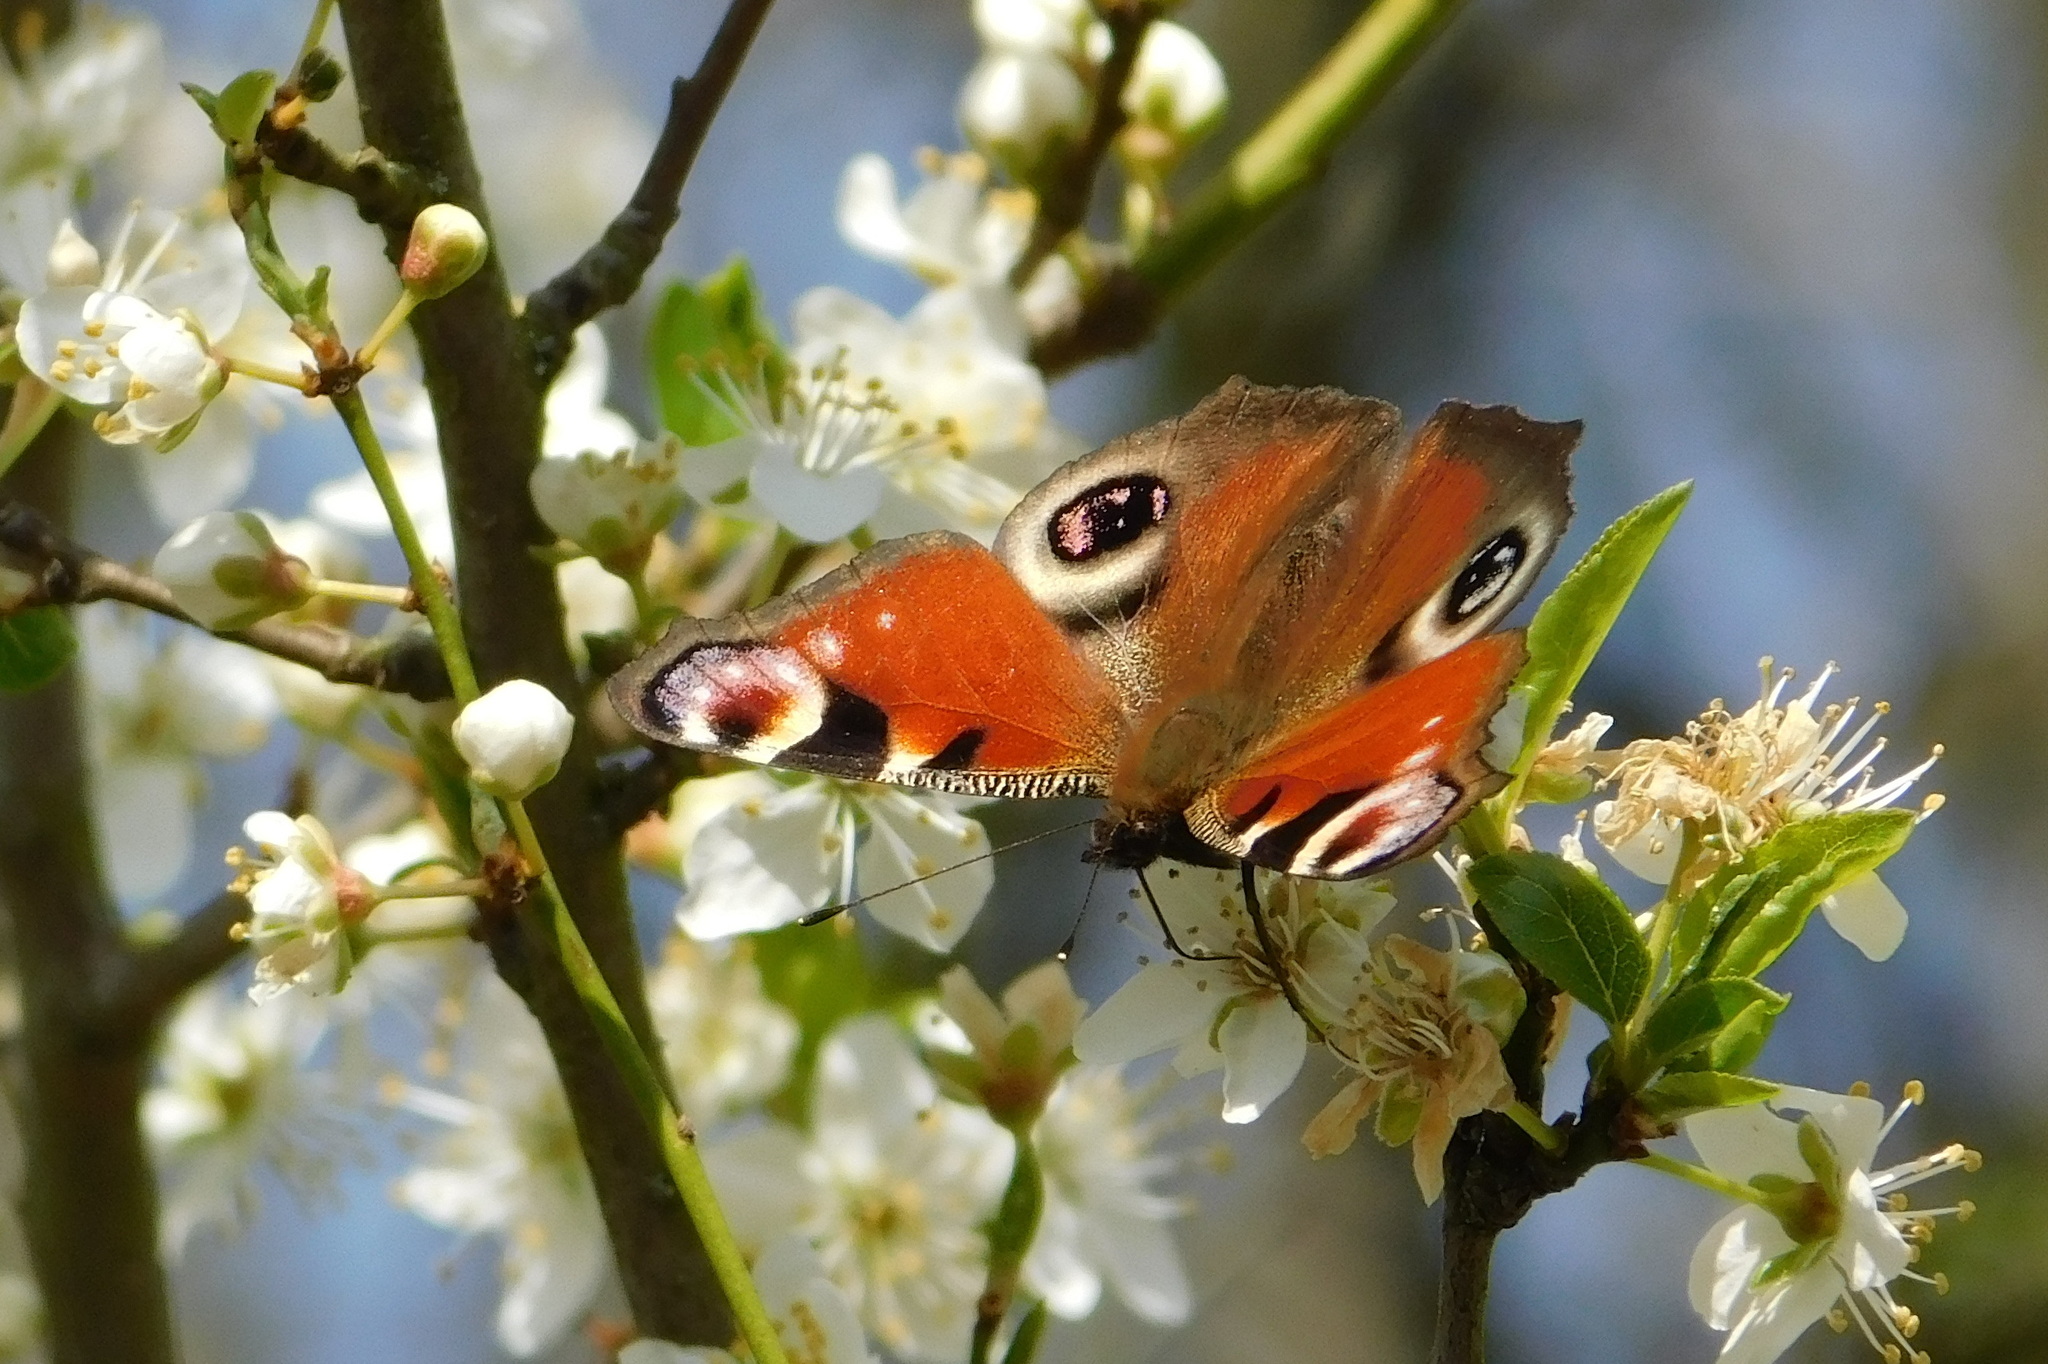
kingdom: Animalia
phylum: Arthropoda
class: Insecta
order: Lepidoptera
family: Nymphalidae
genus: Aglais
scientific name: Aglais io
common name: Peacock
